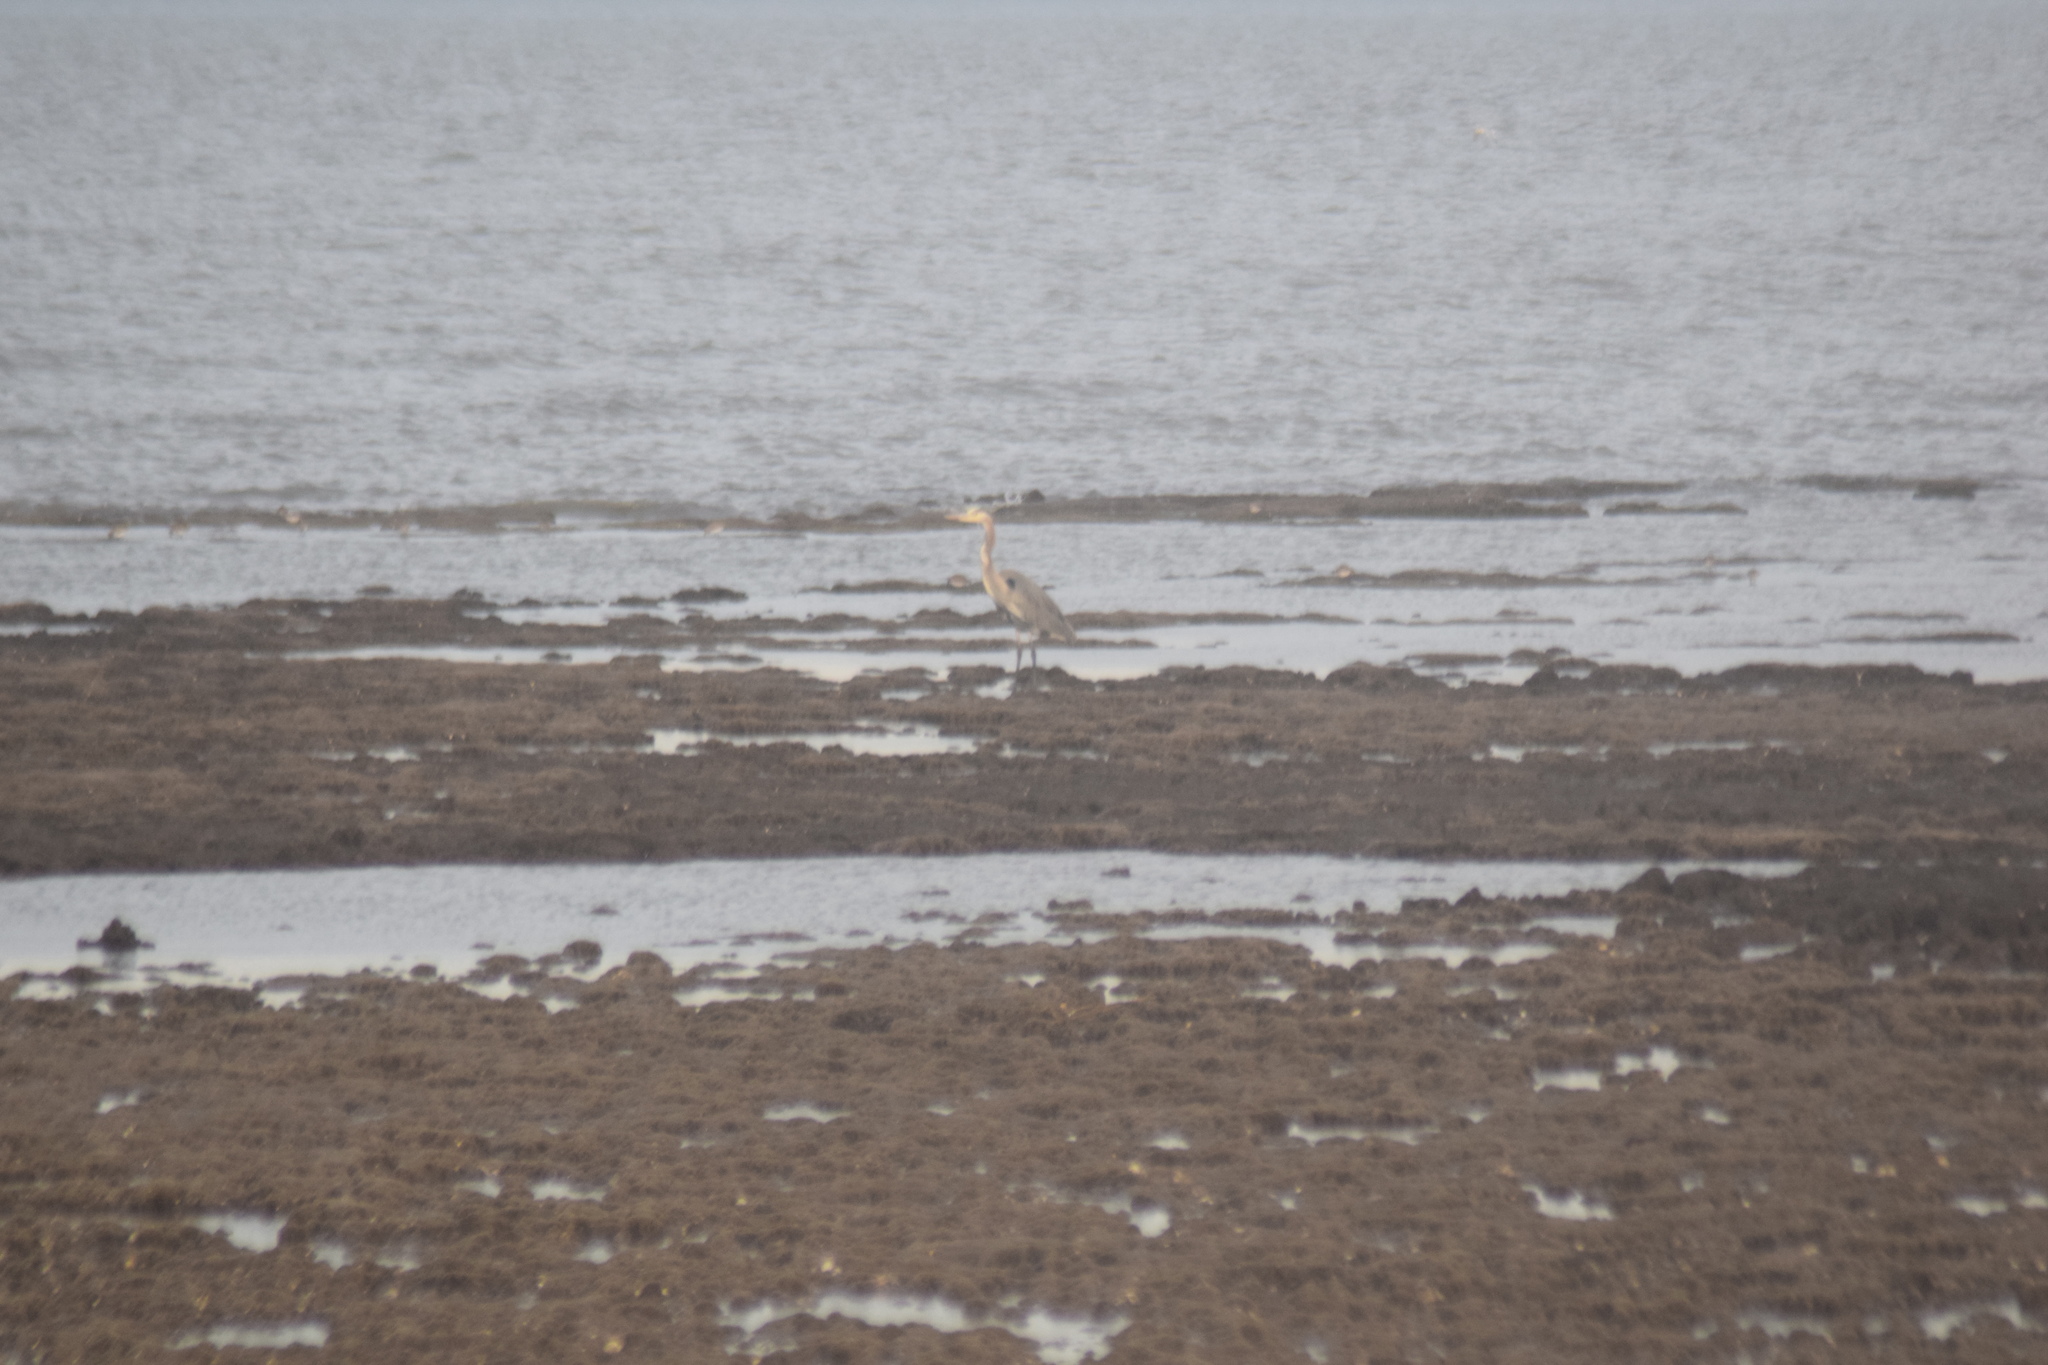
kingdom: Animalia
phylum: Chordata
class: Aves
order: Pelecaniformes
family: Ardeidae
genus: Ardea
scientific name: Ardea herodias
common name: Great blue heron
